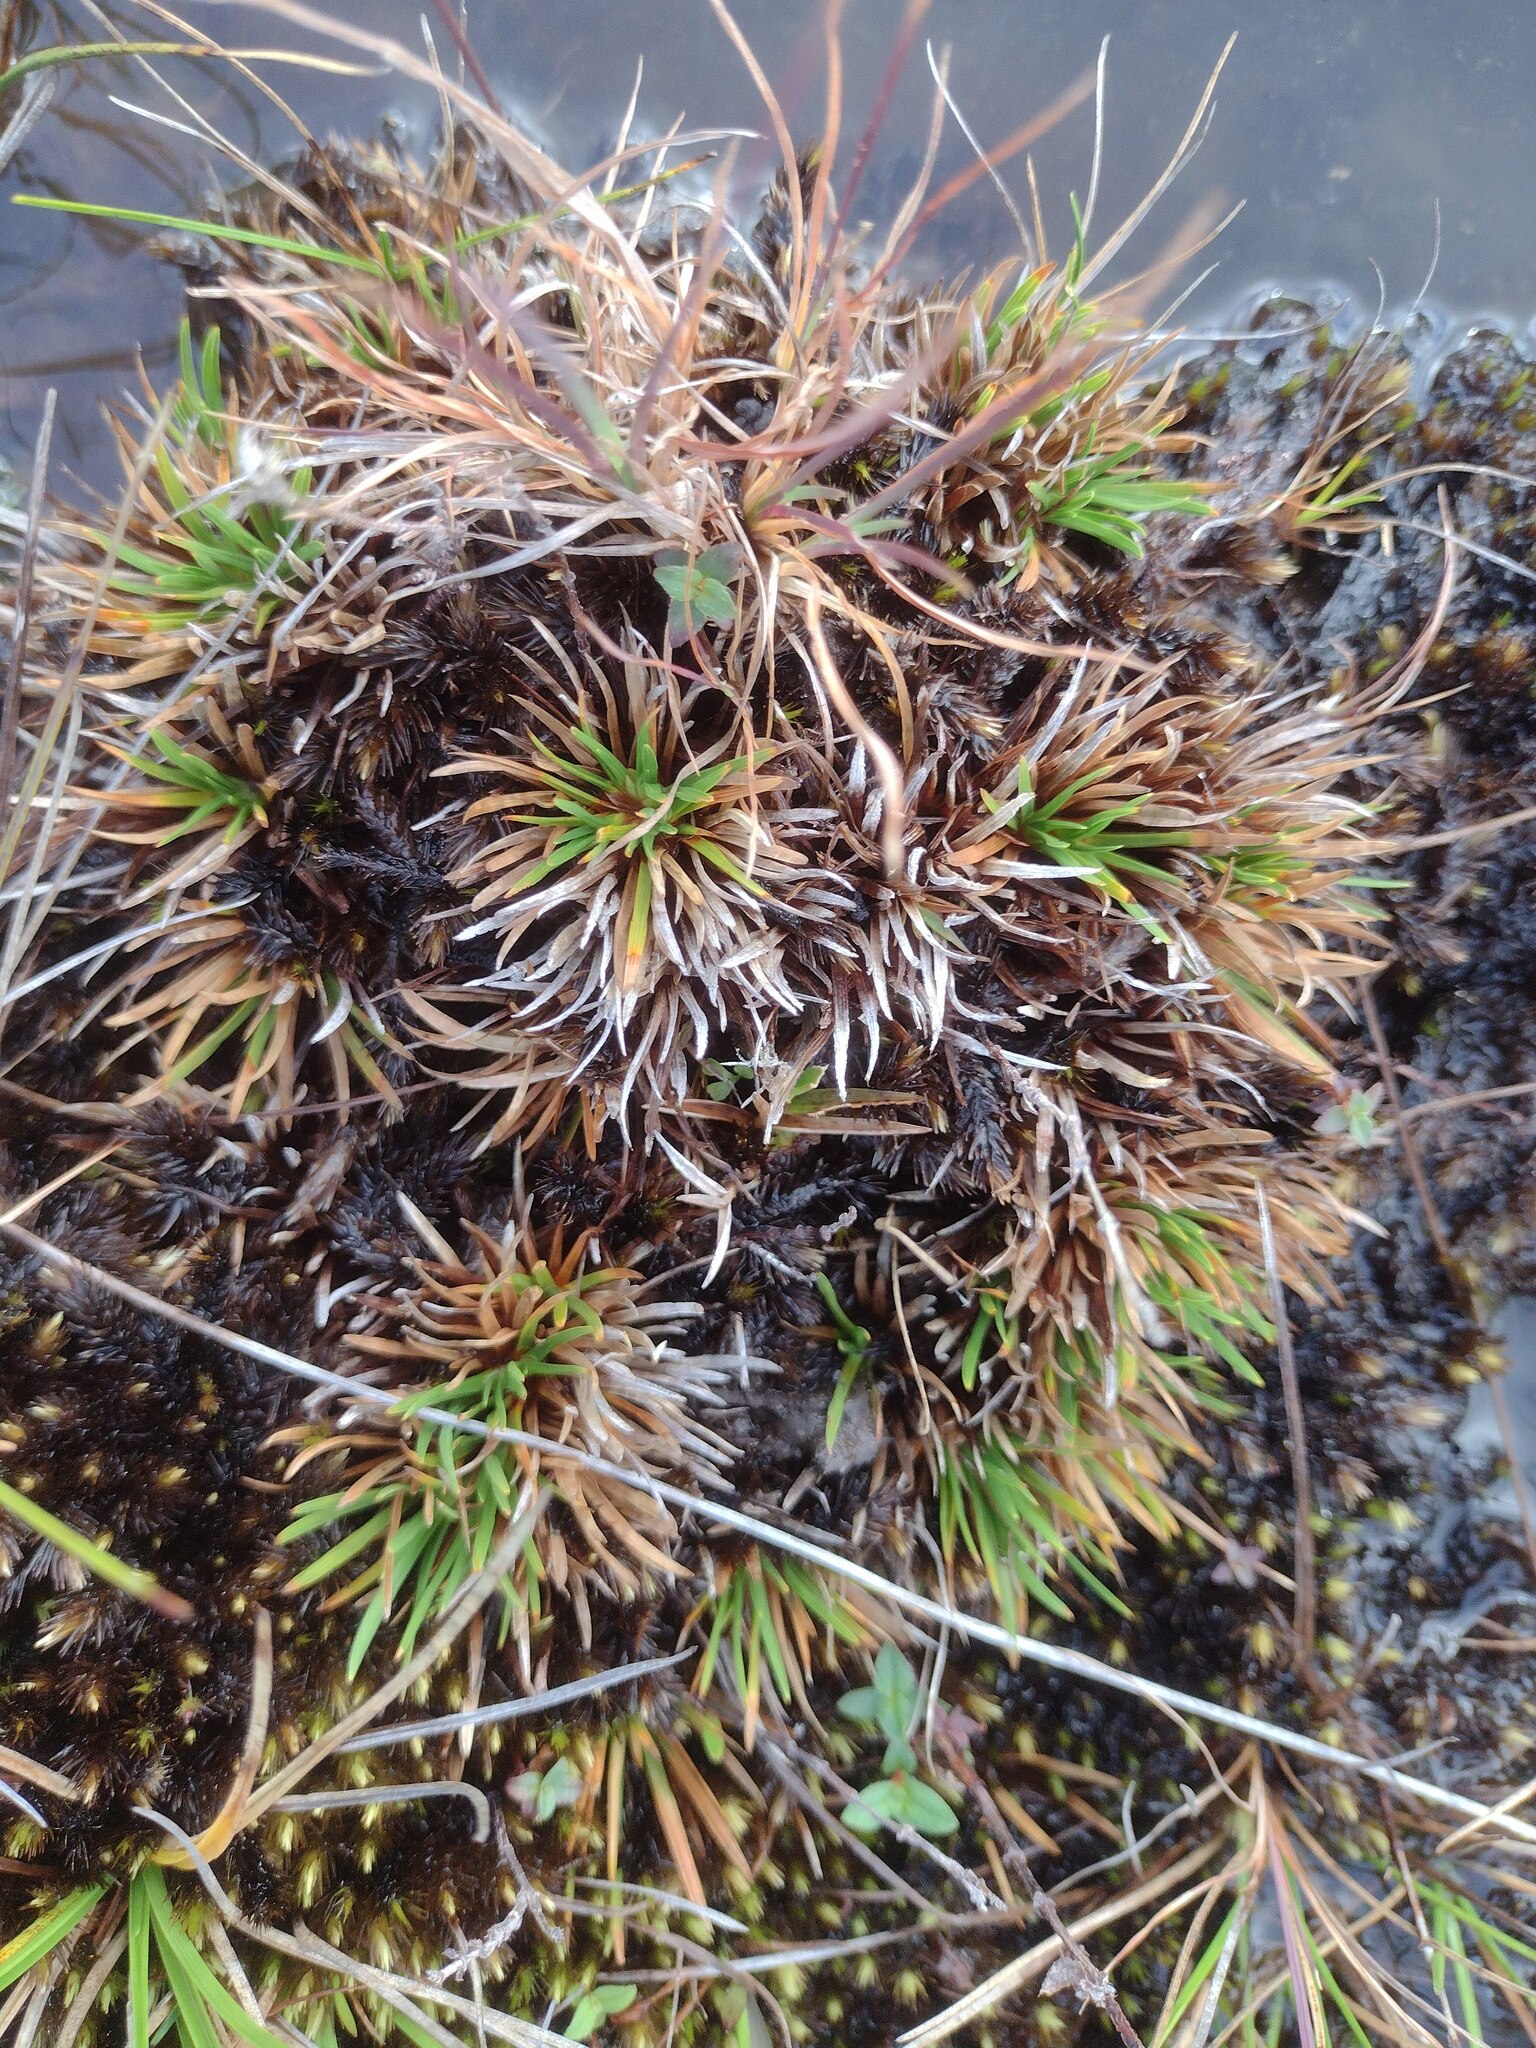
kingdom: Plantae
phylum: Tracheophyta
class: Liliopsida
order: Poales
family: Cyperaceae
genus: Oreobolus
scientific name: Oreobolus furcatus
